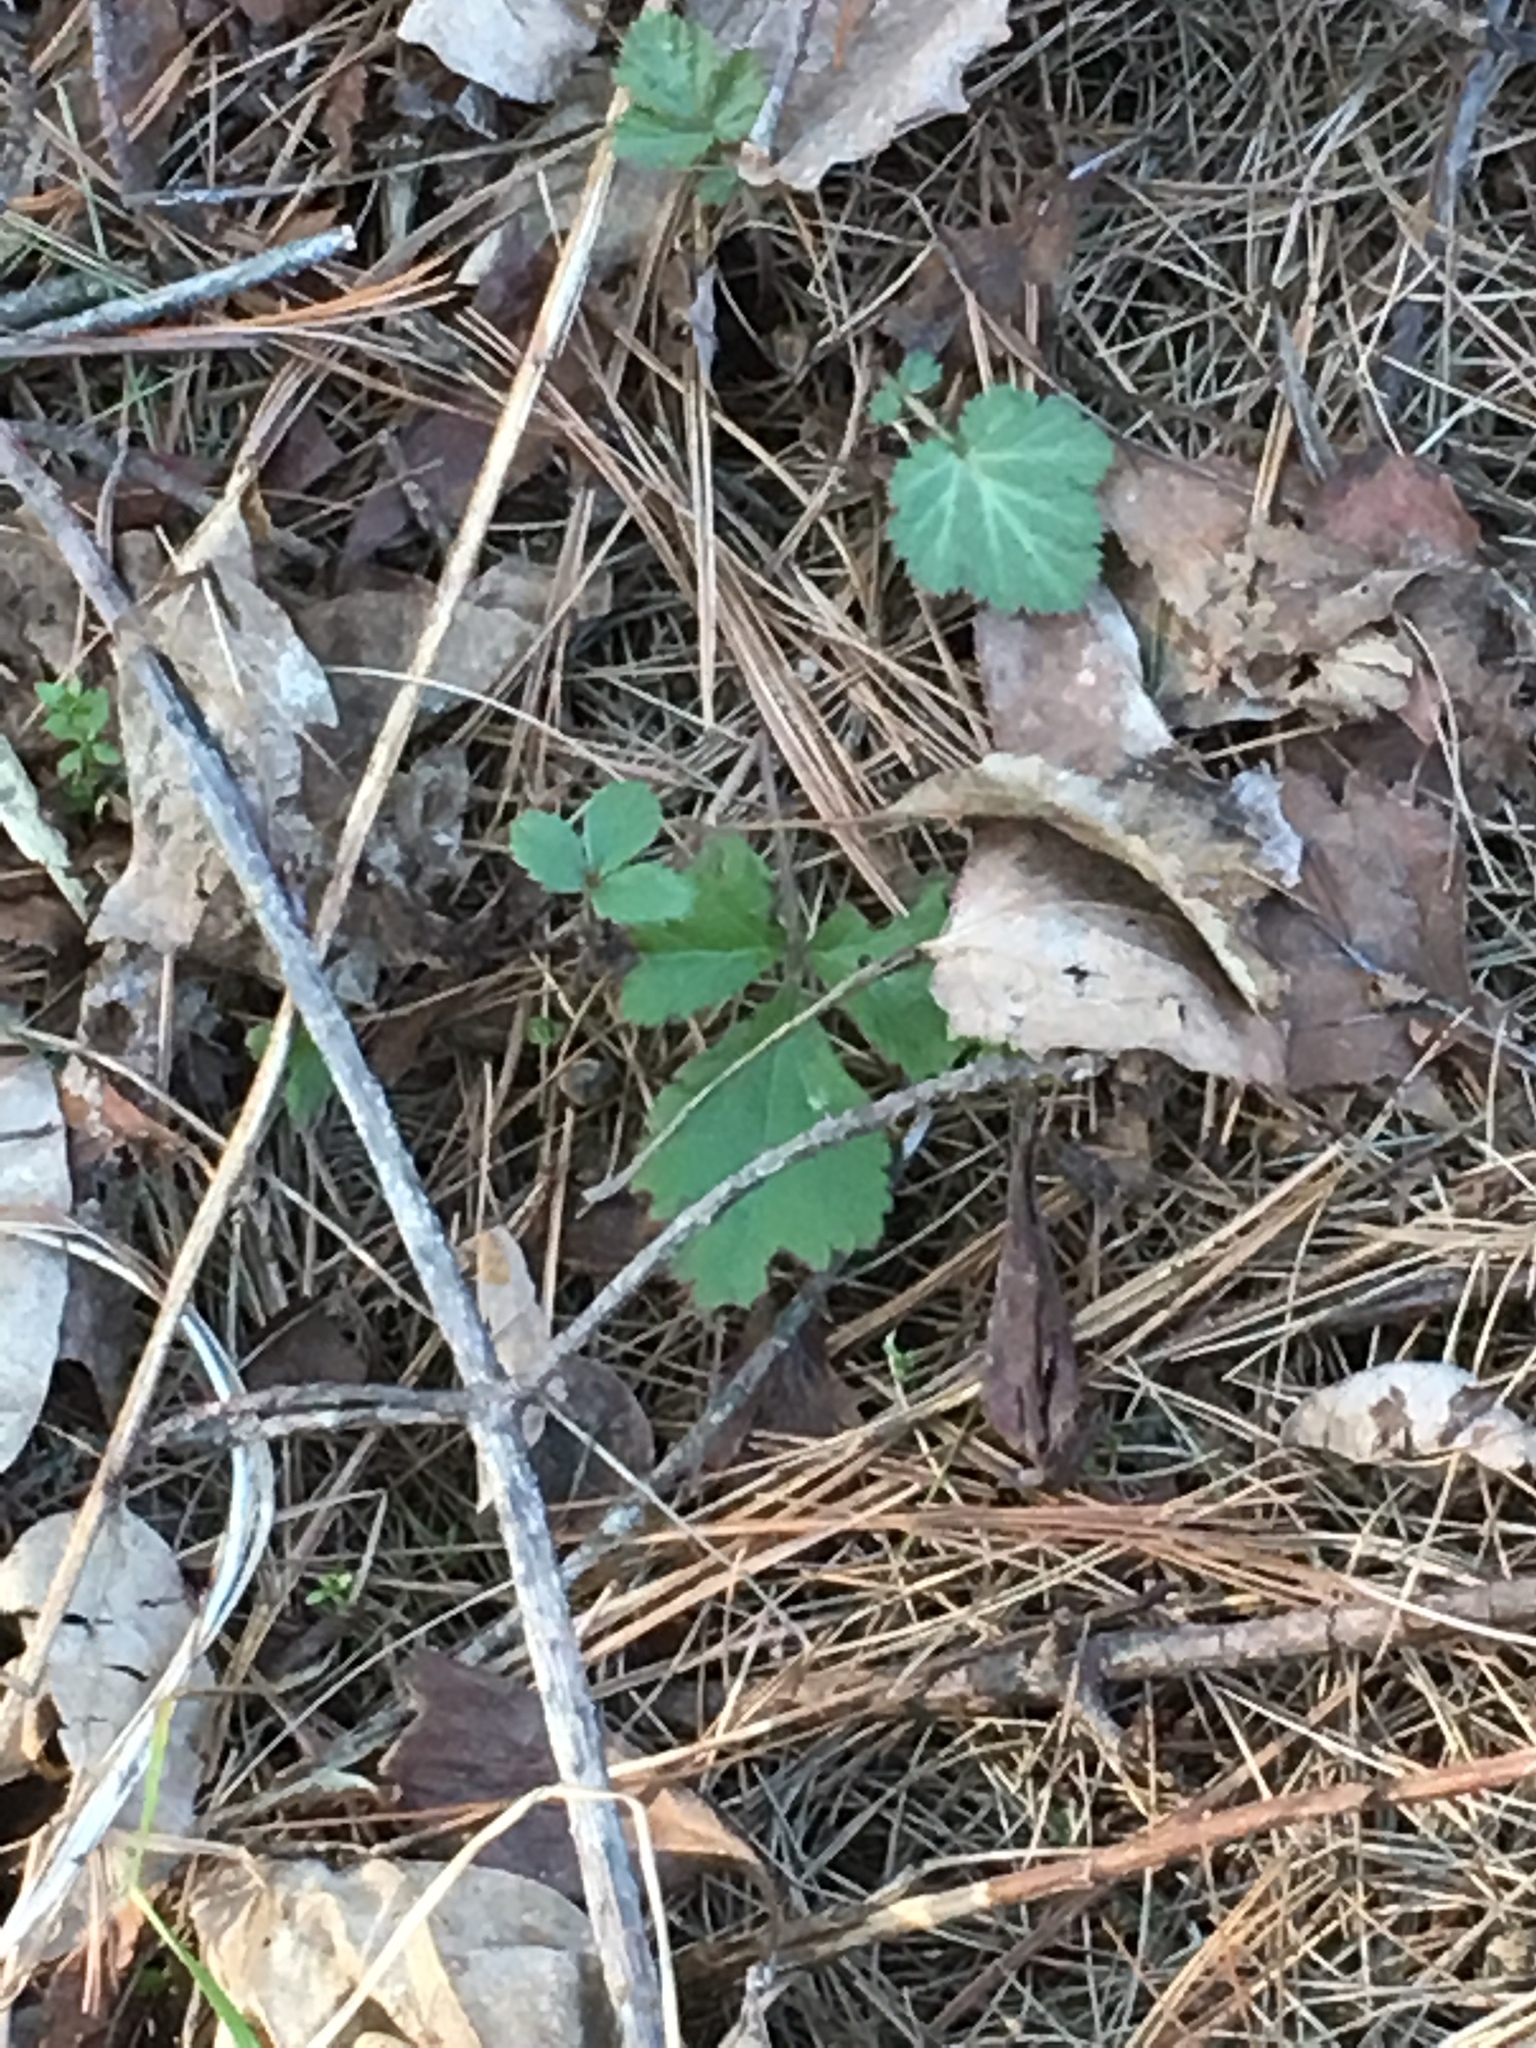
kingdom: Plantae
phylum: Tracheophyta
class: Magnoliopsida
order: Rosales
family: Rosaceae
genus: Geum
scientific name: Geum canadense
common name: White avens
